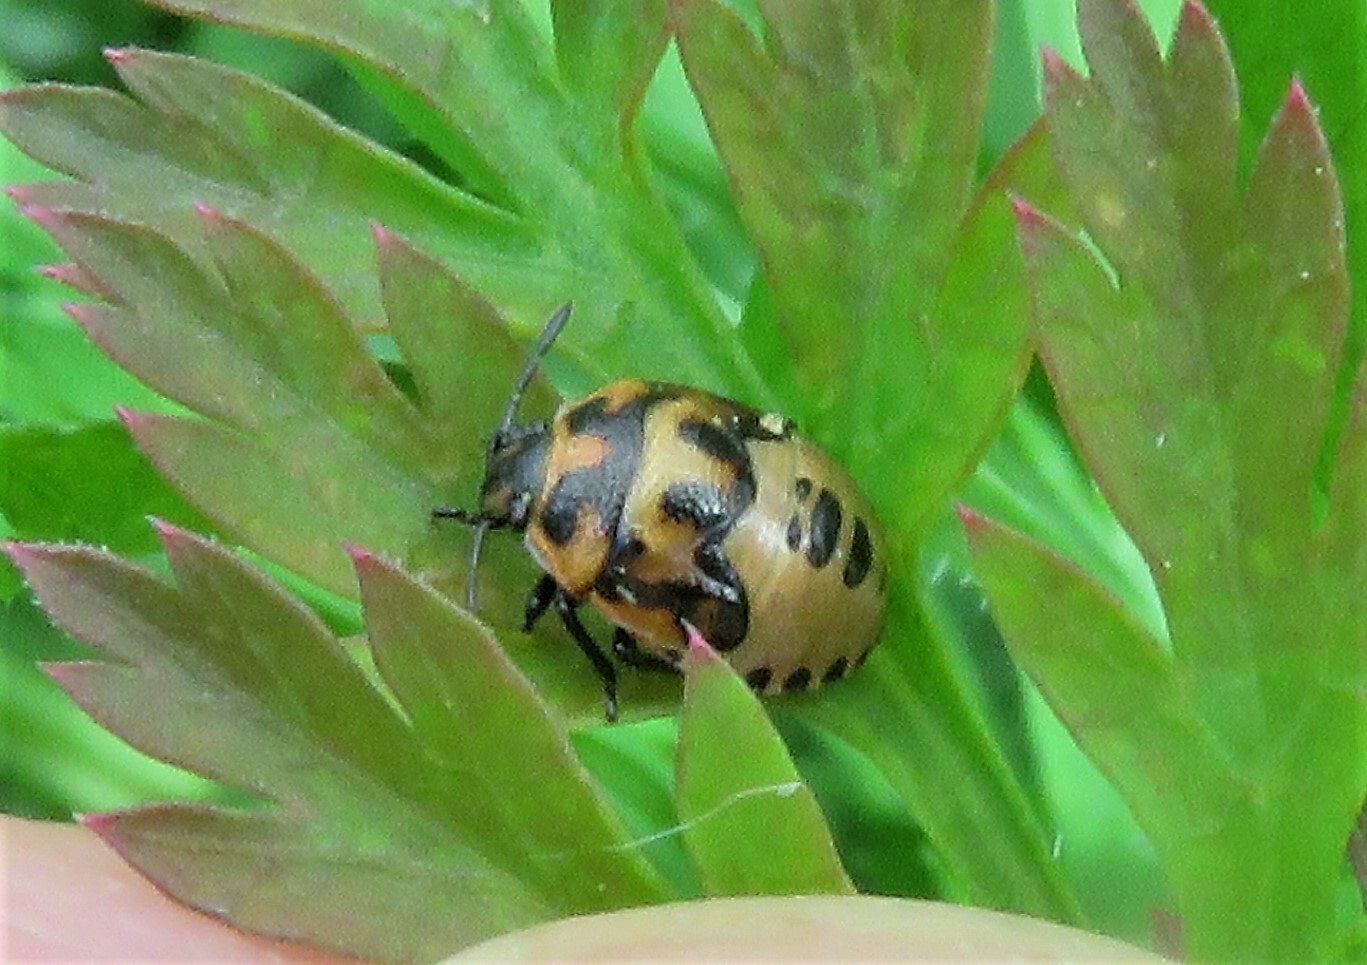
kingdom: Animalia
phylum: Arthropoda
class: Insecta
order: Hemiptera
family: Pentatomidae
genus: Cosmopepla
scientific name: Cosmopepla lintneriana
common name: Twice-stabbed stink bug
